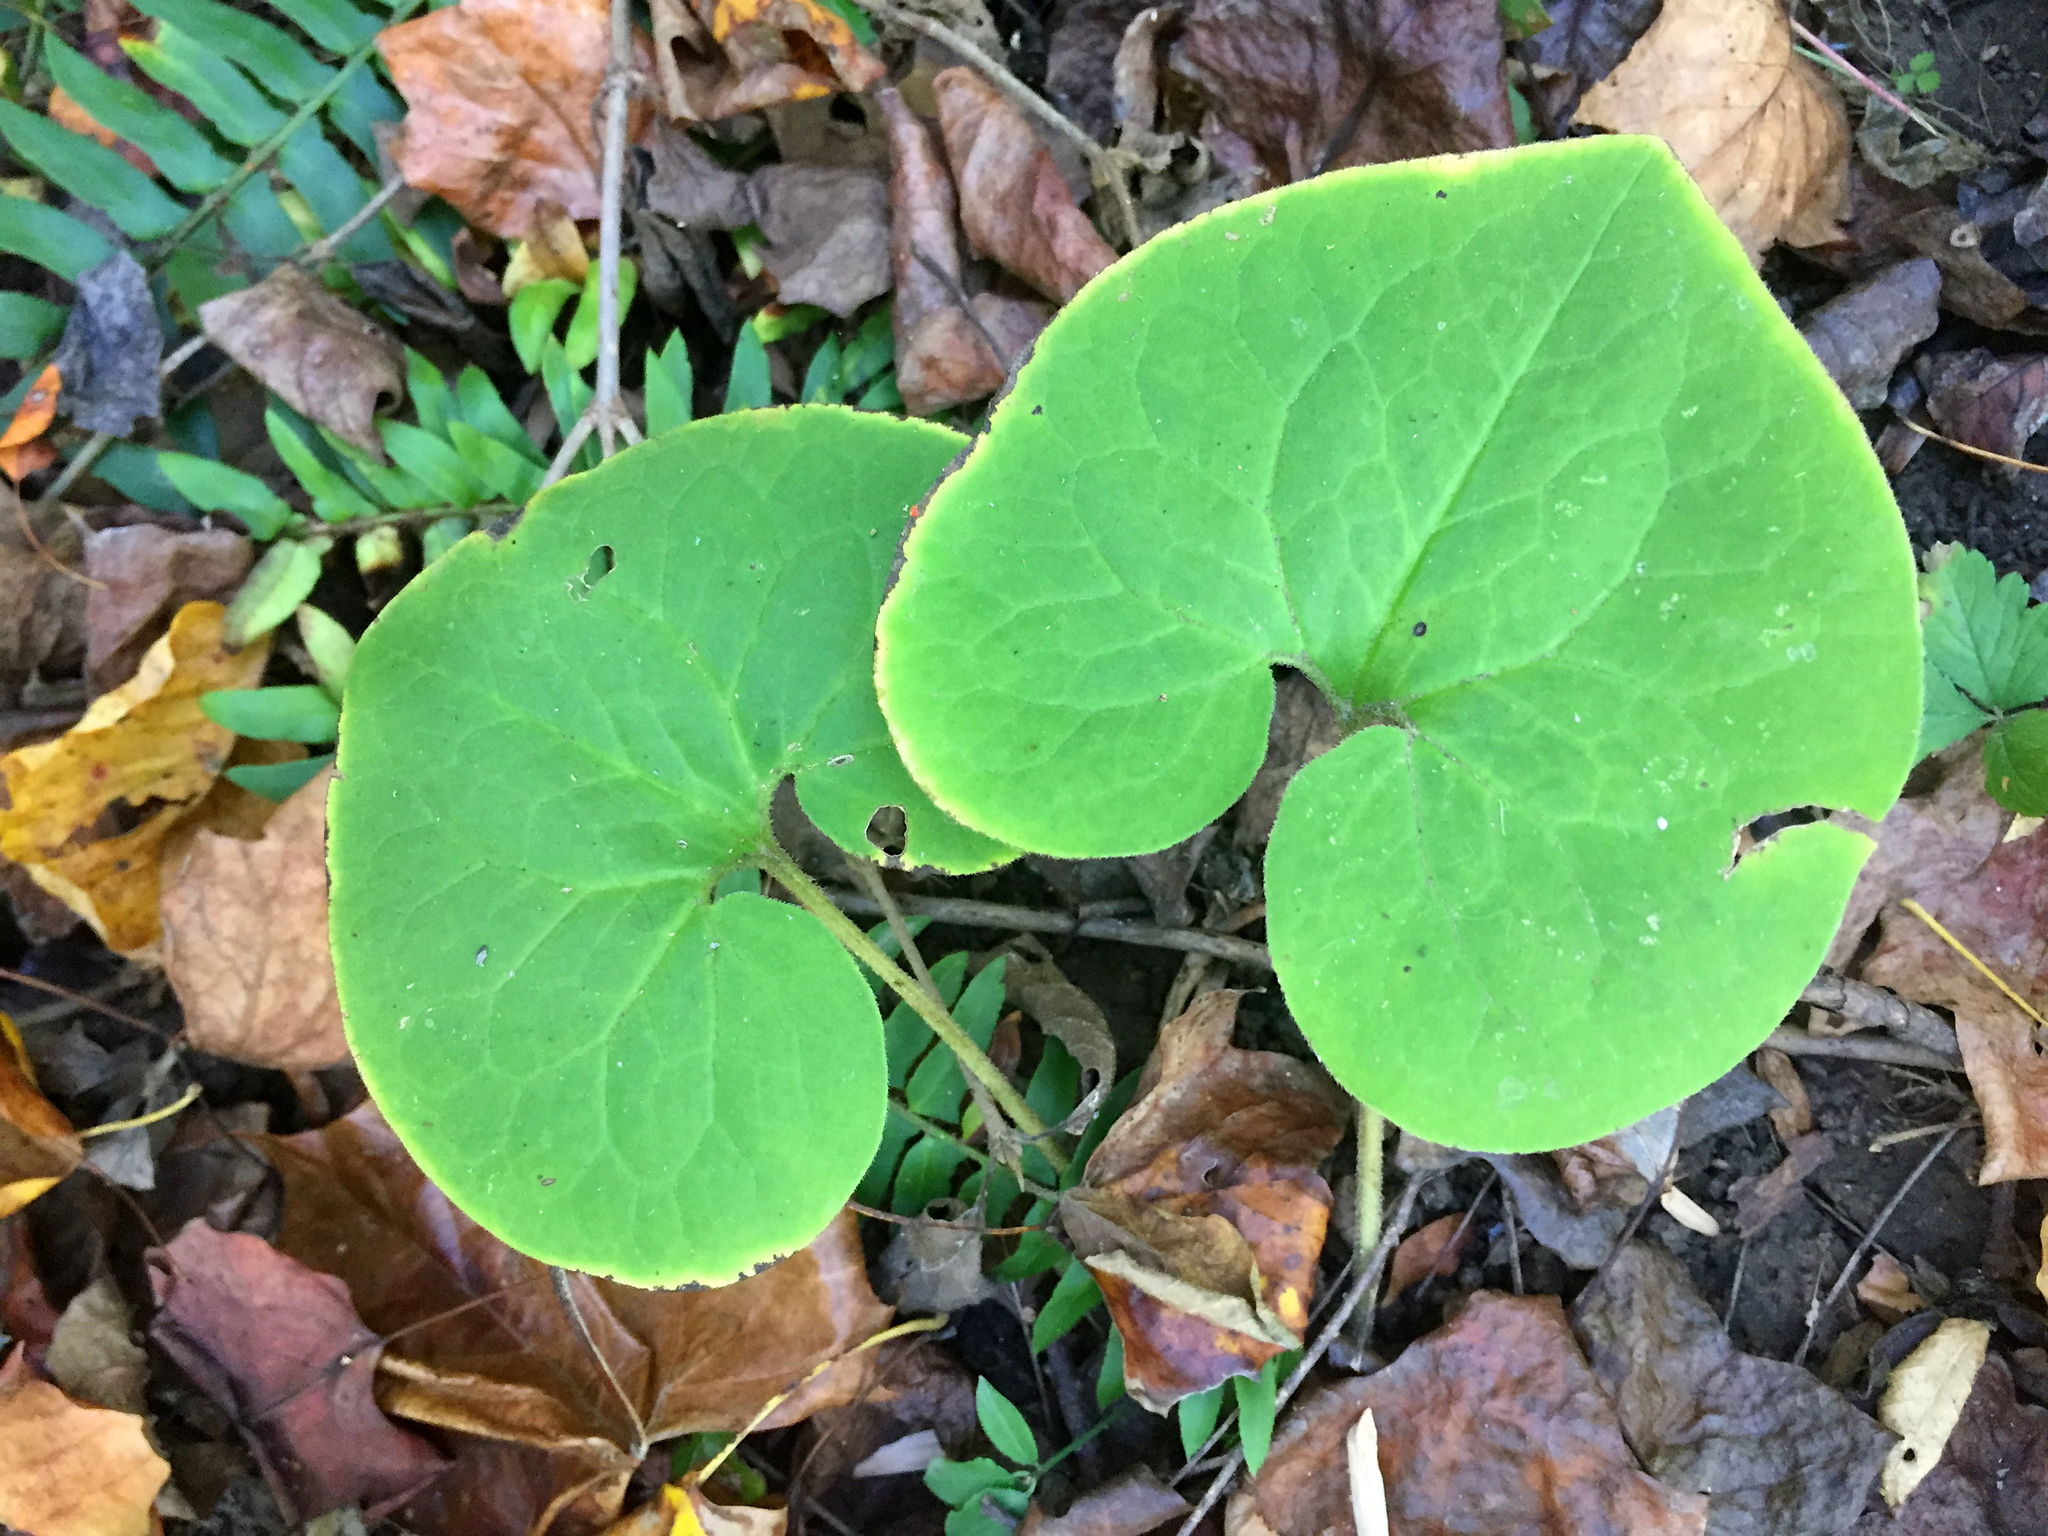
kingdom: Plantae
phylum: Tracheophyta
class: Magnoliopsida
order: Piperales
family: Aristolochiaceae
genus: Asarum
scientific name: Asarum canadense
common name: Wild ginger
